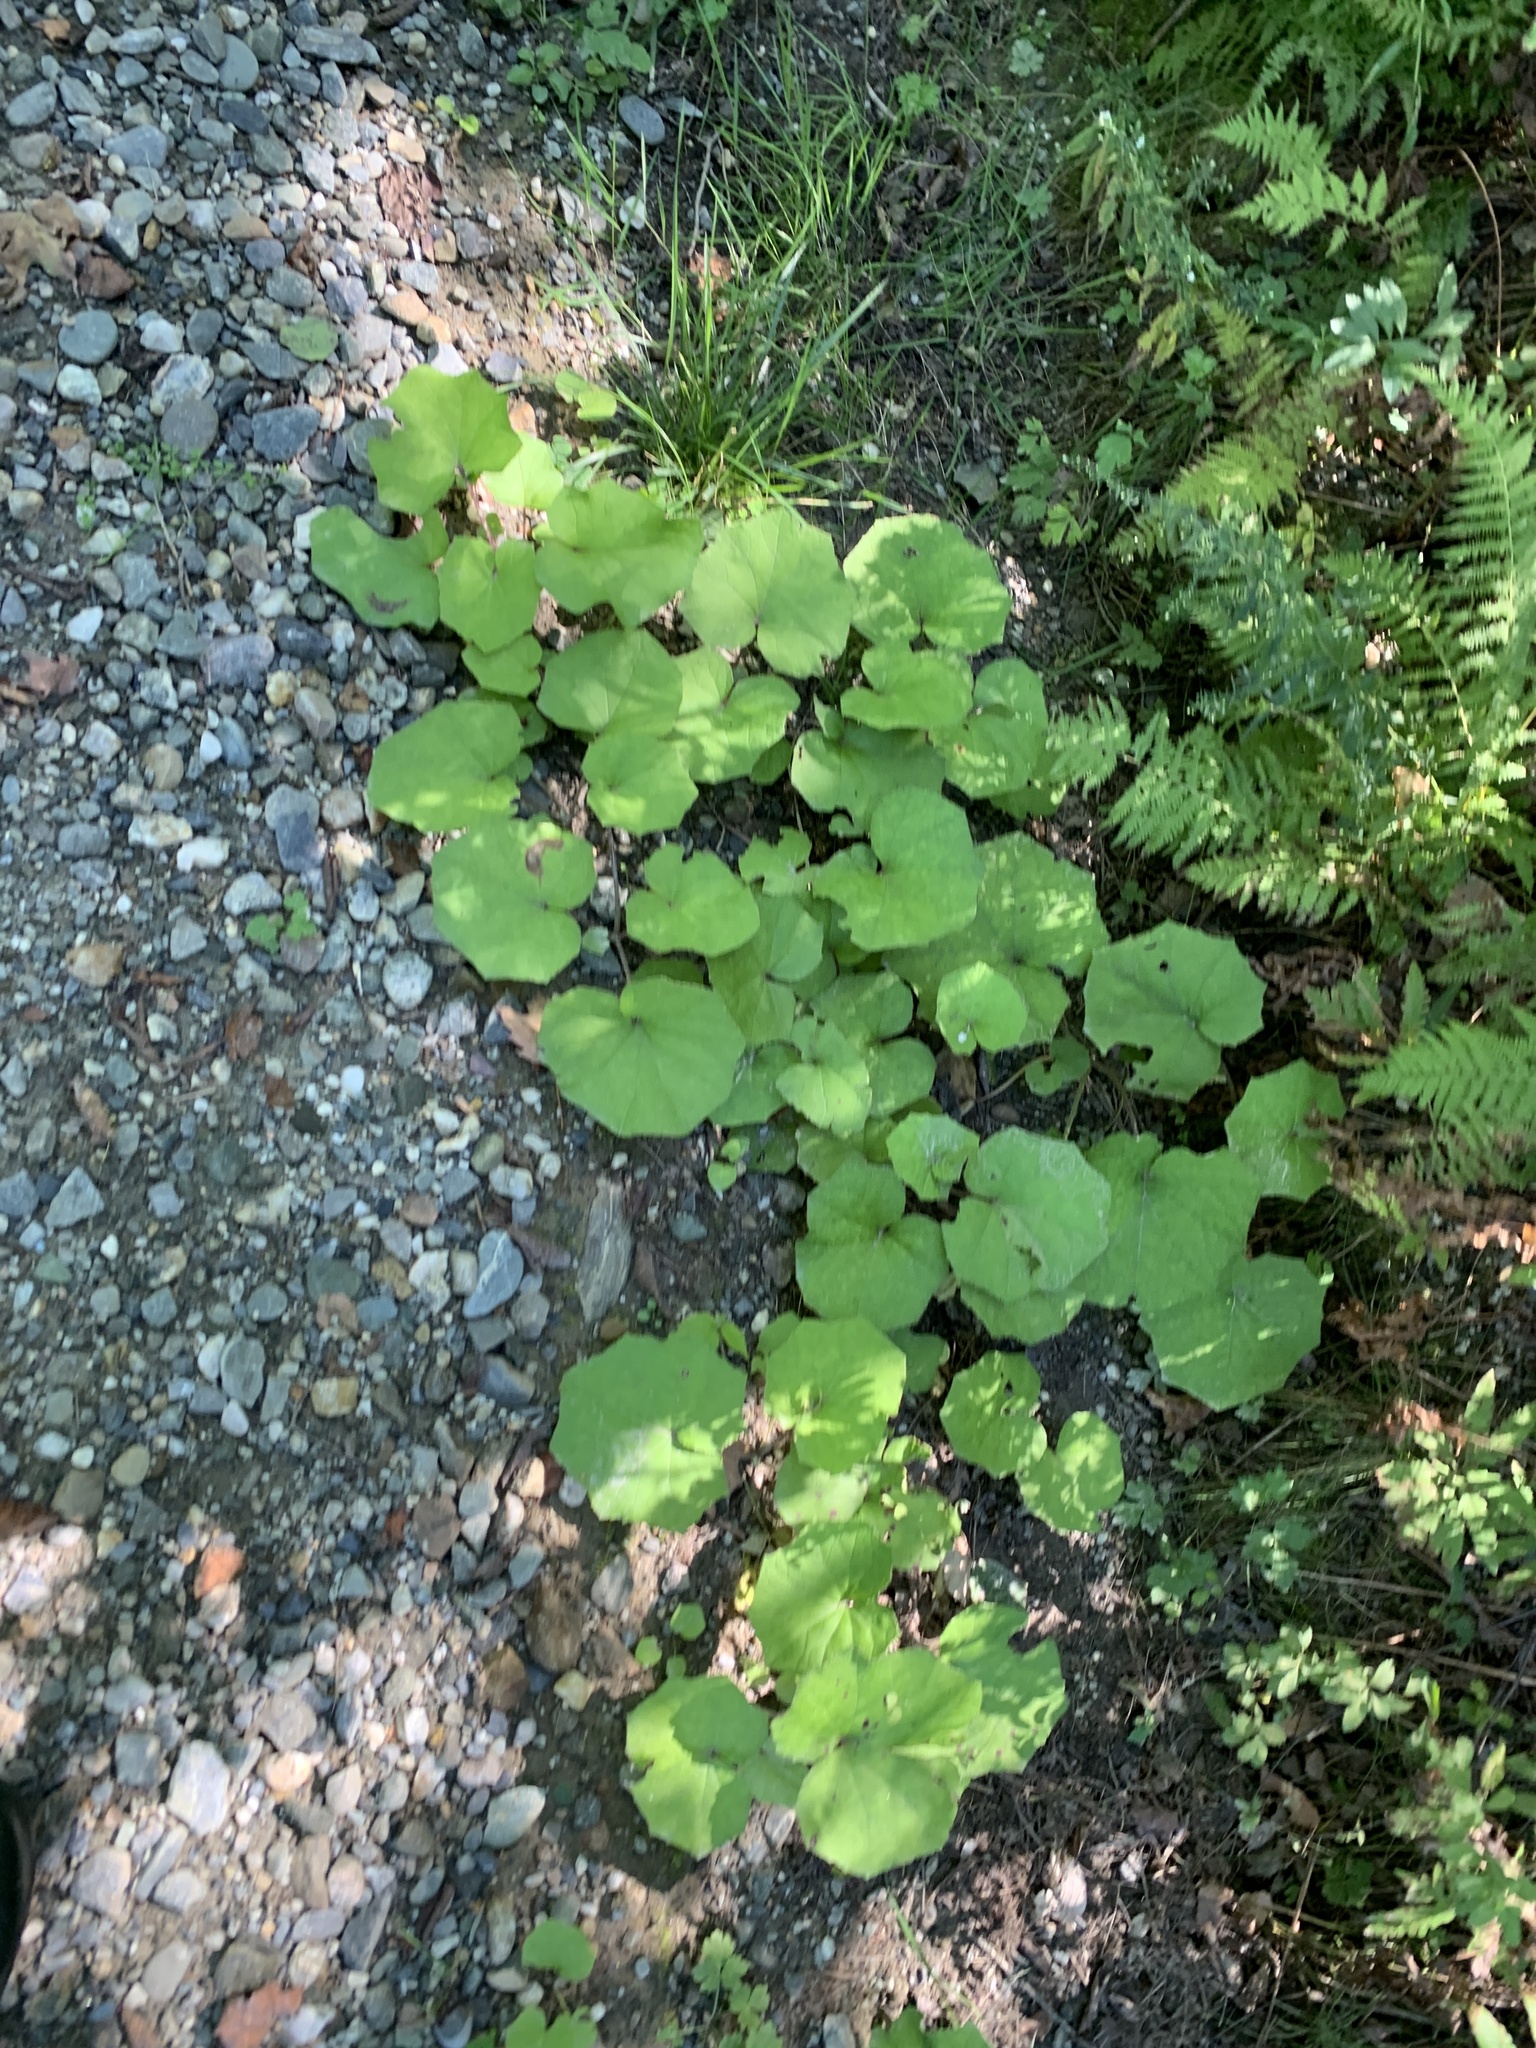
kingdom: Plantae
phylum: Tracheophyta
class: Magnoliopsida
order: Asterales
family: Asteraceae
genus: Tussilago
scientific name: Tussilago farfara
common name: Coltsfoot
